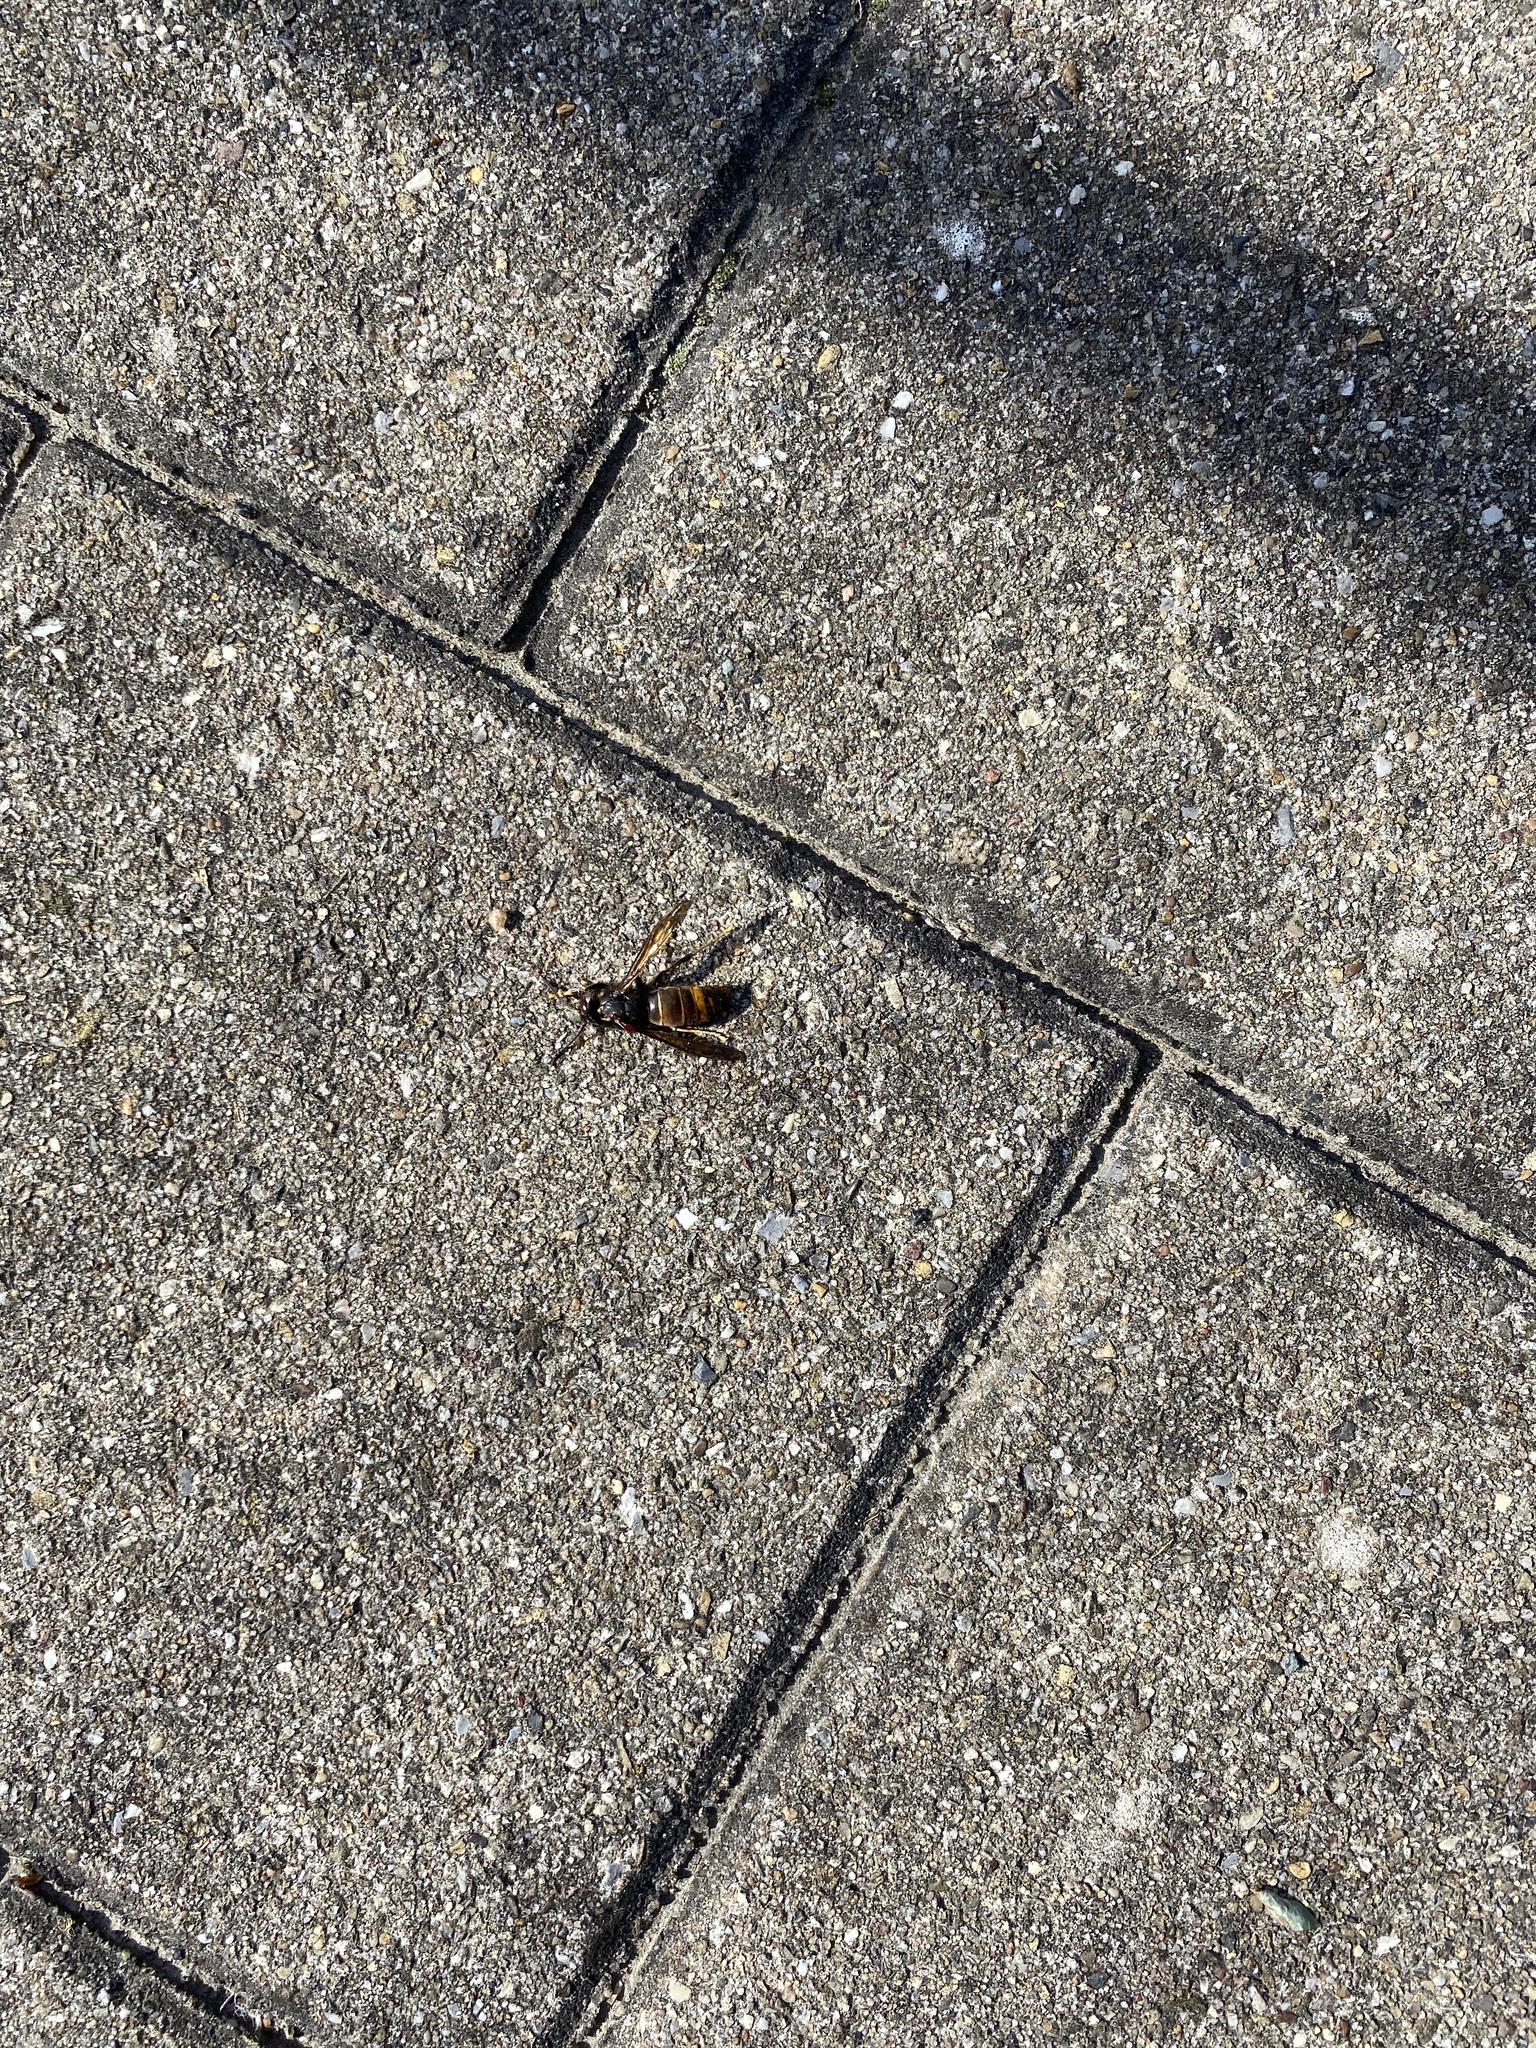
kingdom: Animalia
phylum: Arthropoda
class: Insecta
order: Hymenoptera
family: Vespidae
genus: Vespa
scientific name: Vespa velutina
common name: Asian hornet
